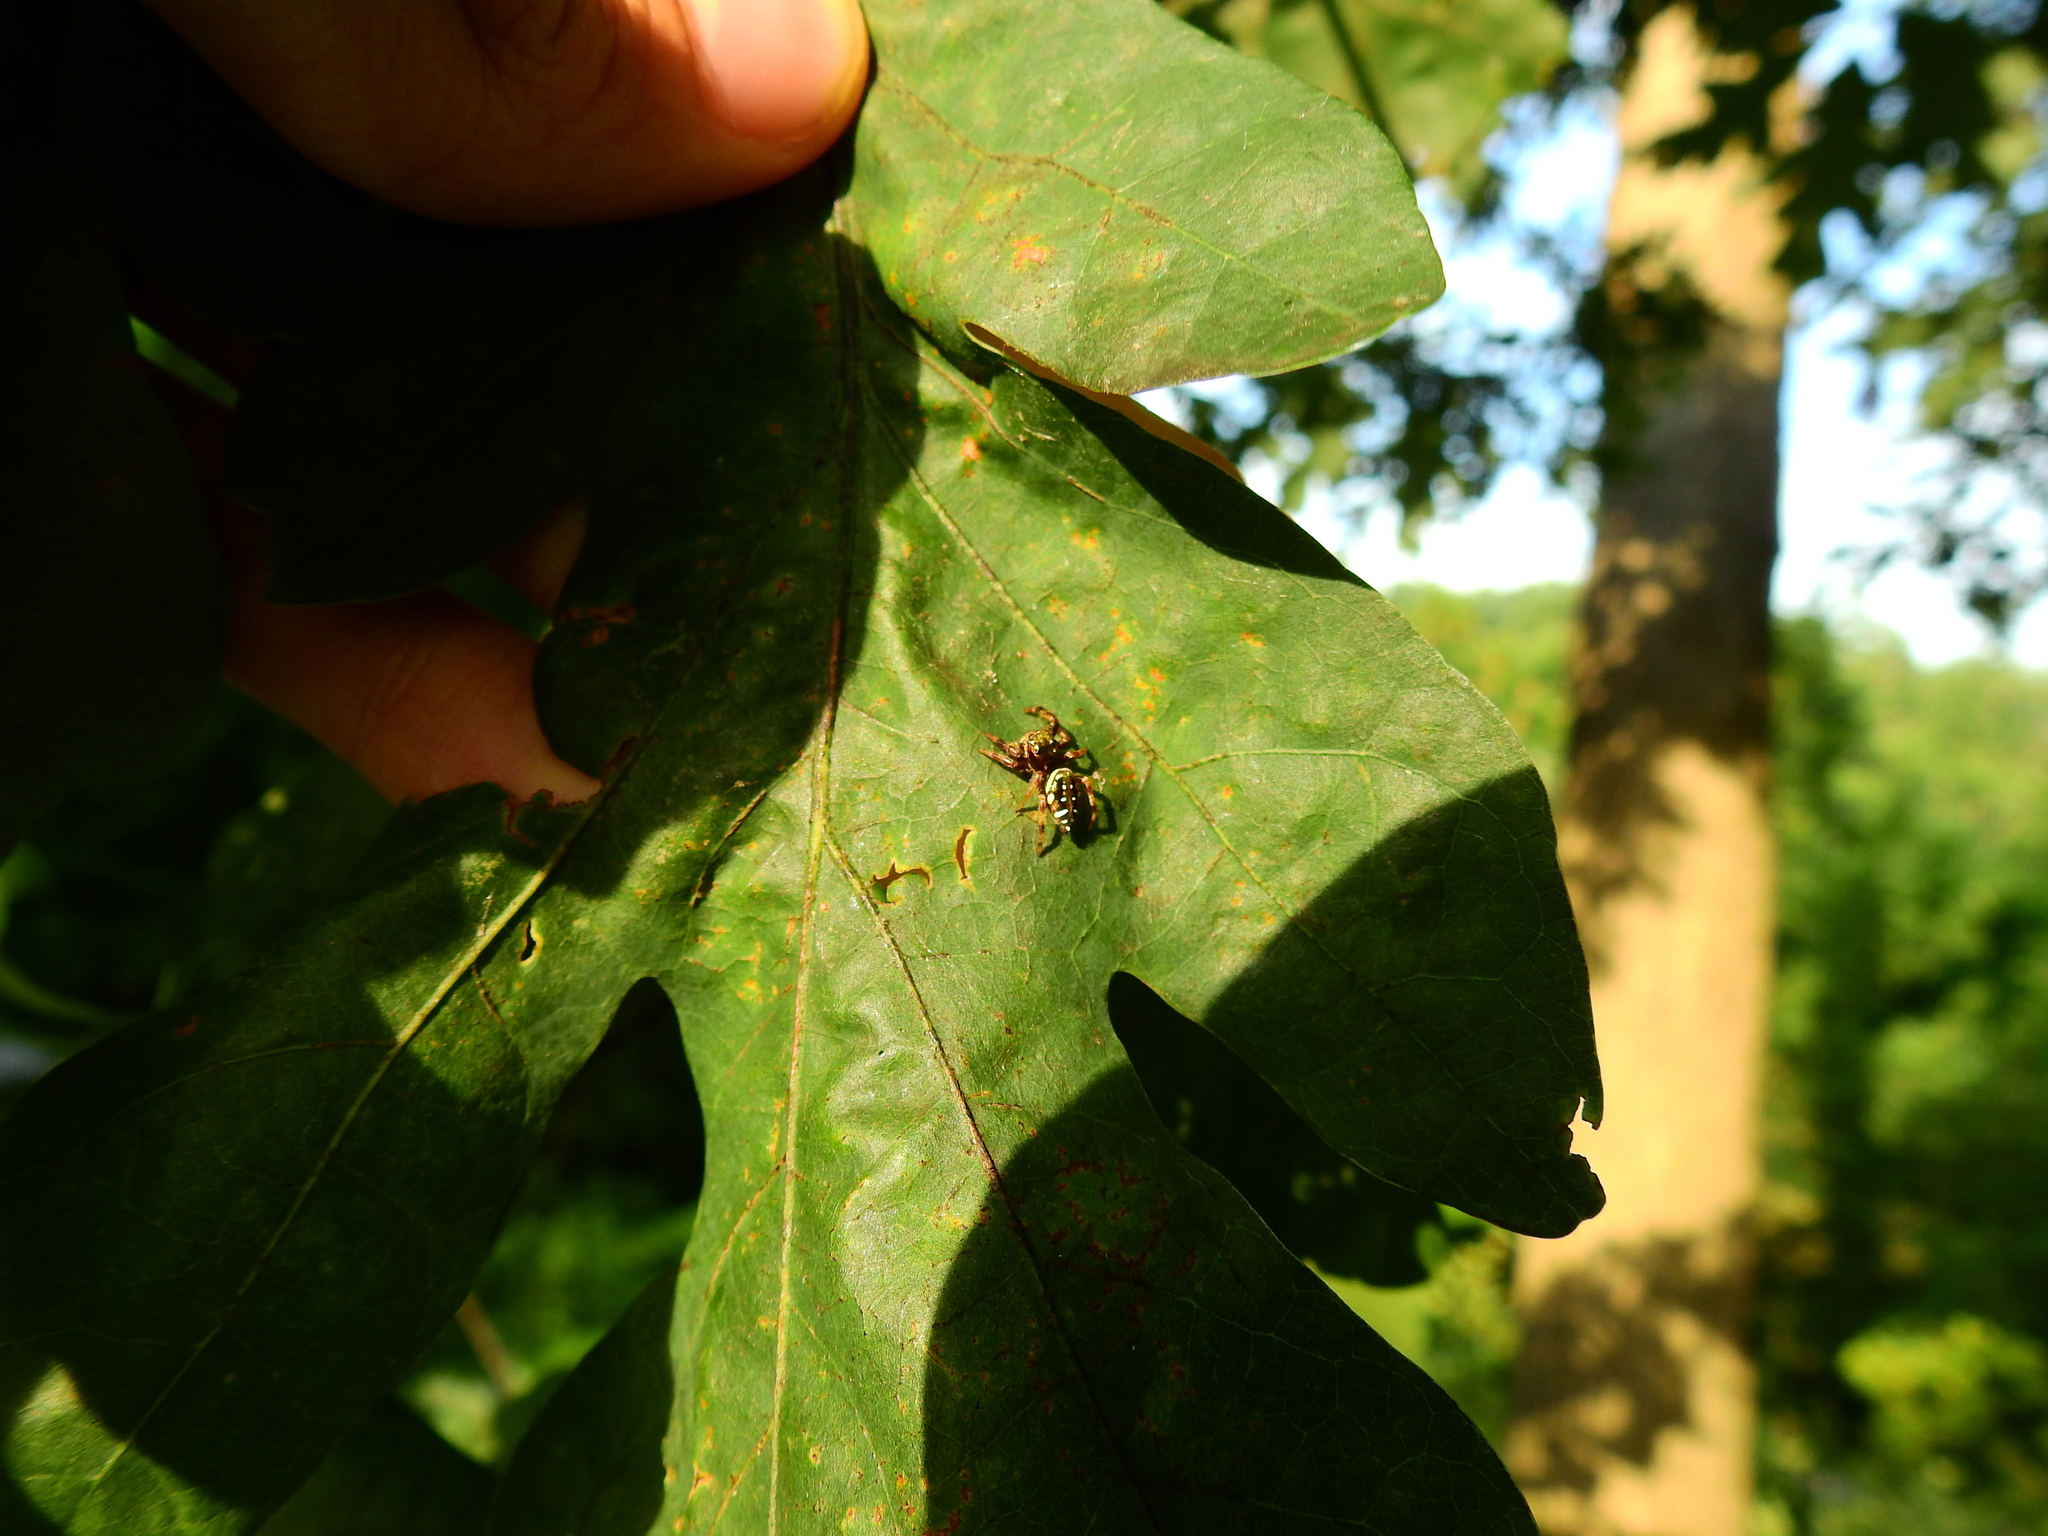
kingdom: Animalia
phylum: Arthropoda
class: Arachnida
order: Araneae
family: Salticidae
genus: Paraphidippus
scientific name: Paraphidippus aurantius
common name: Jumping spiders
